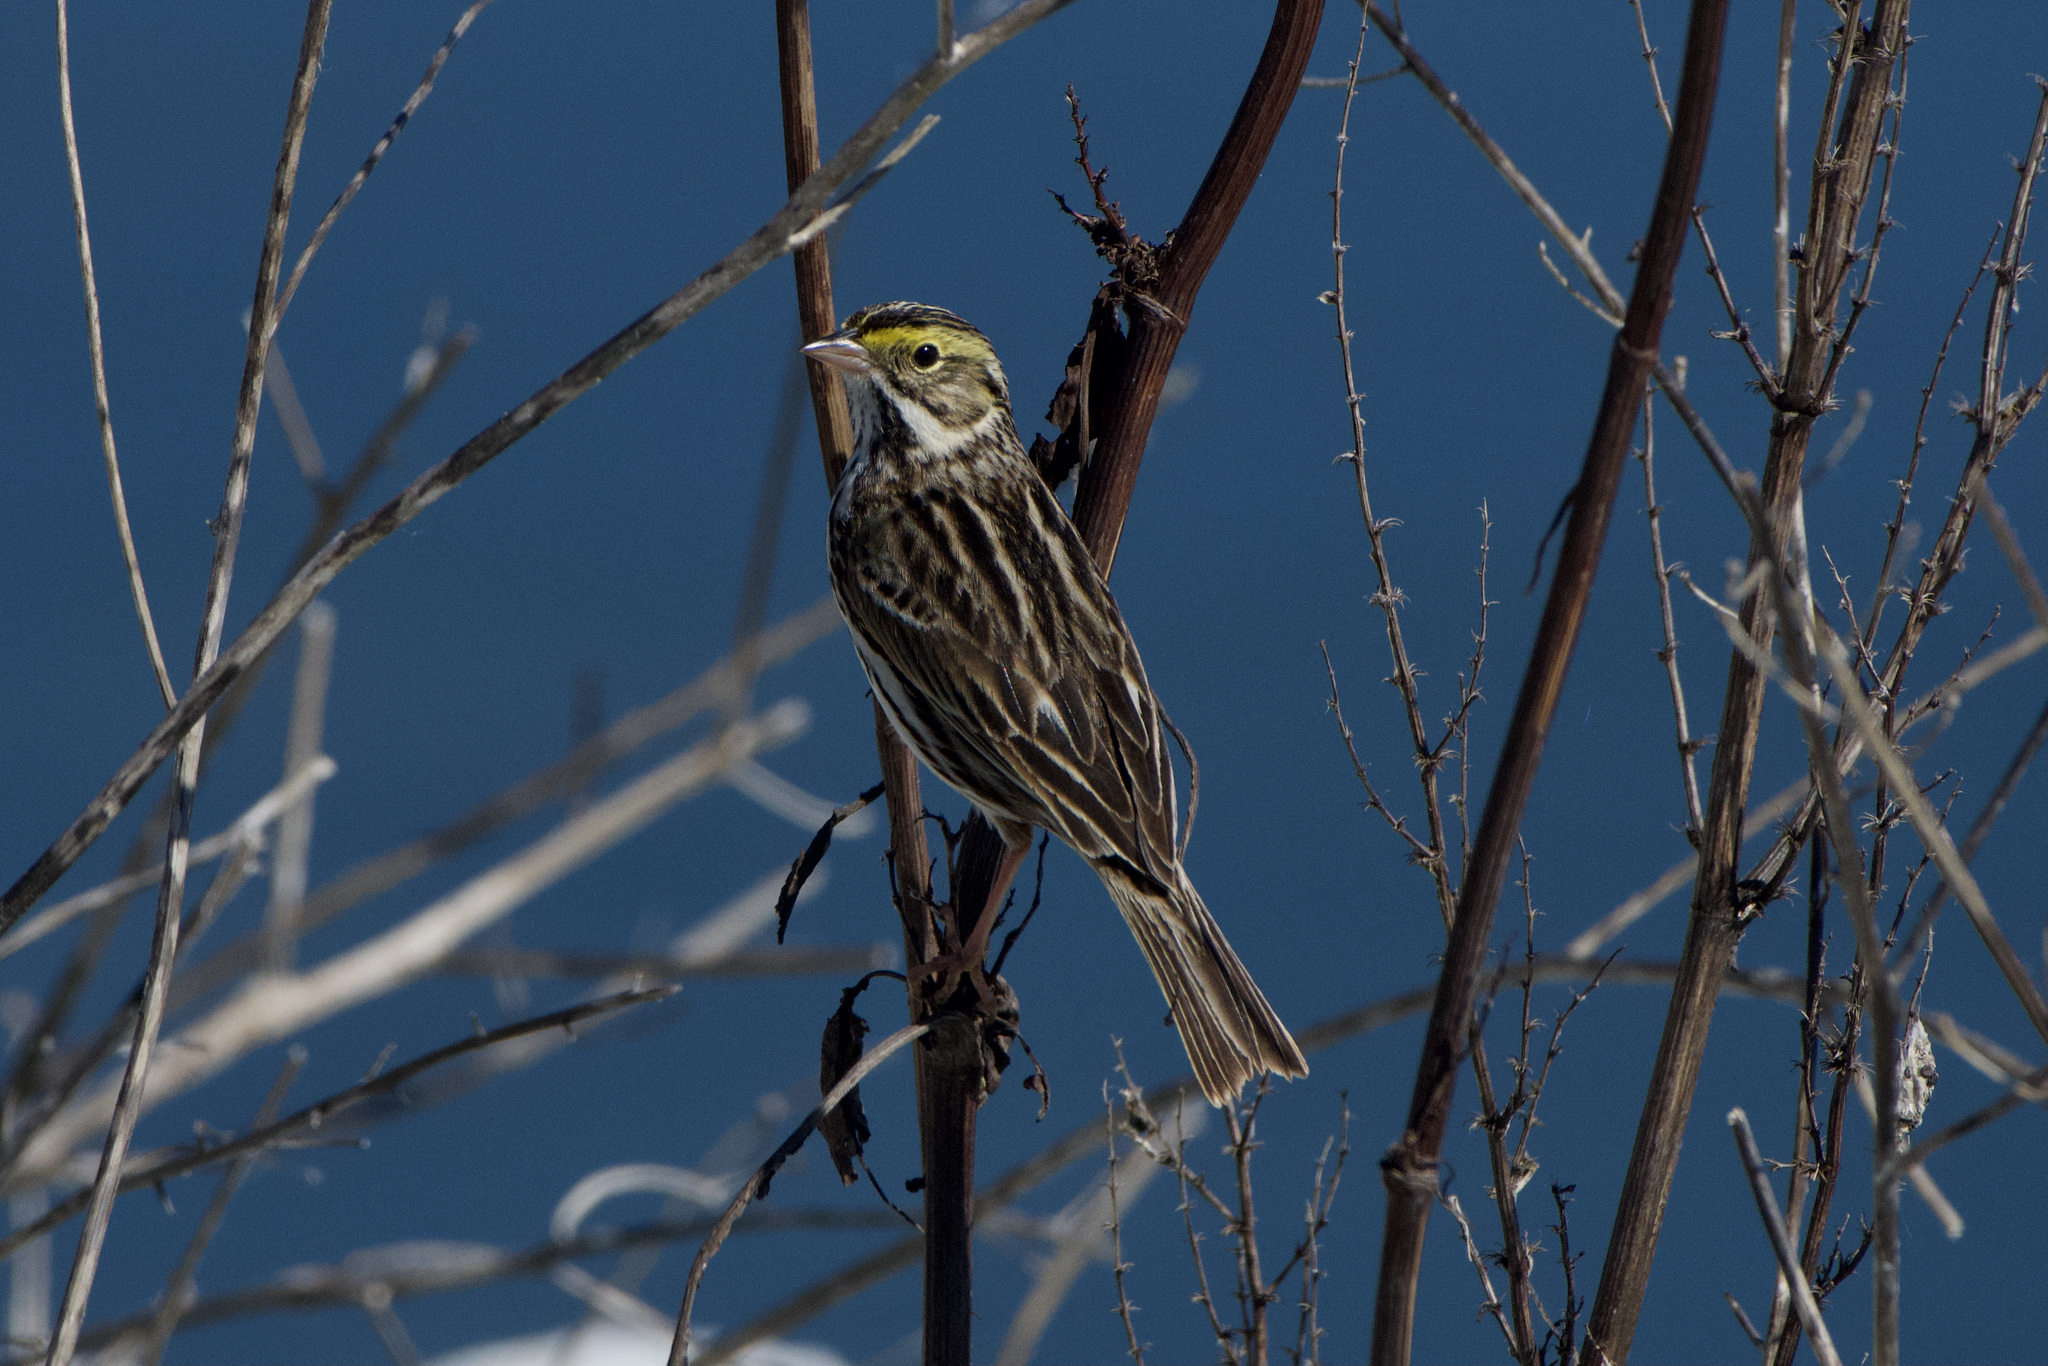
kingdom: Animalia
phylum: Chordata
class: Aves
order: Passeriformes
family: Passerellidae
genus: Passerculus
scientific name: Passerculus sandwichensis
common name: Savannah sparrow
